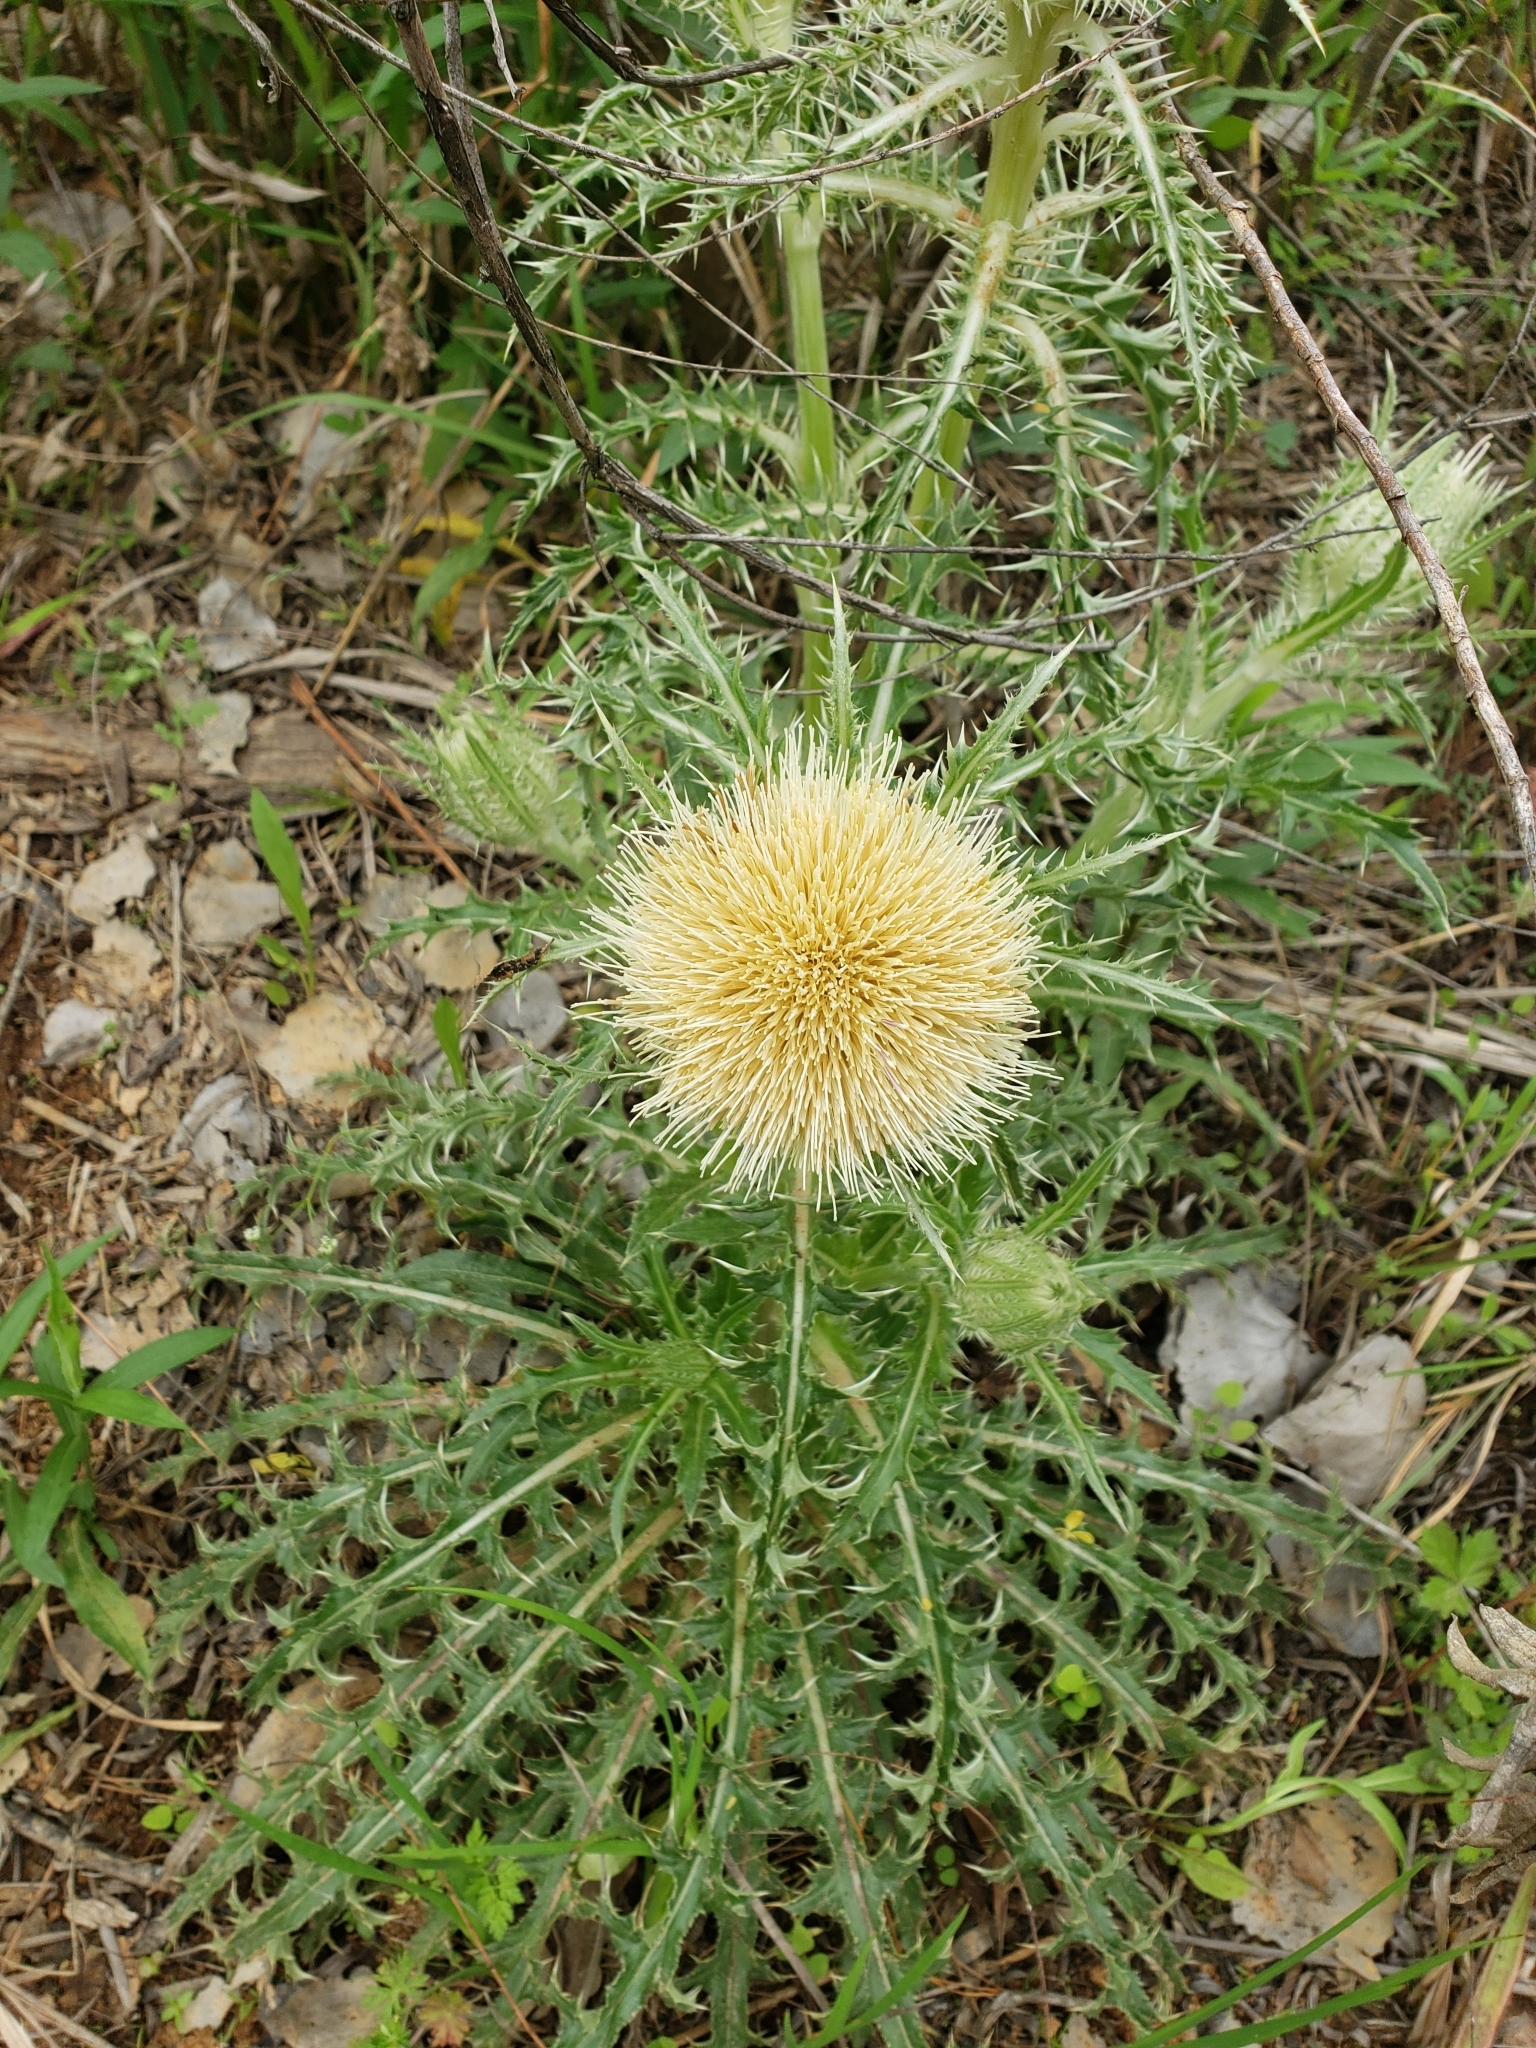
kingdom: Plantae
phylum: Tracheophyta
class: Magnoliopsida
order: Asterales
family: Asteraceae
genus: Cirsium
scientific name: Cirsium horridulum
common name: Bristly thistle
